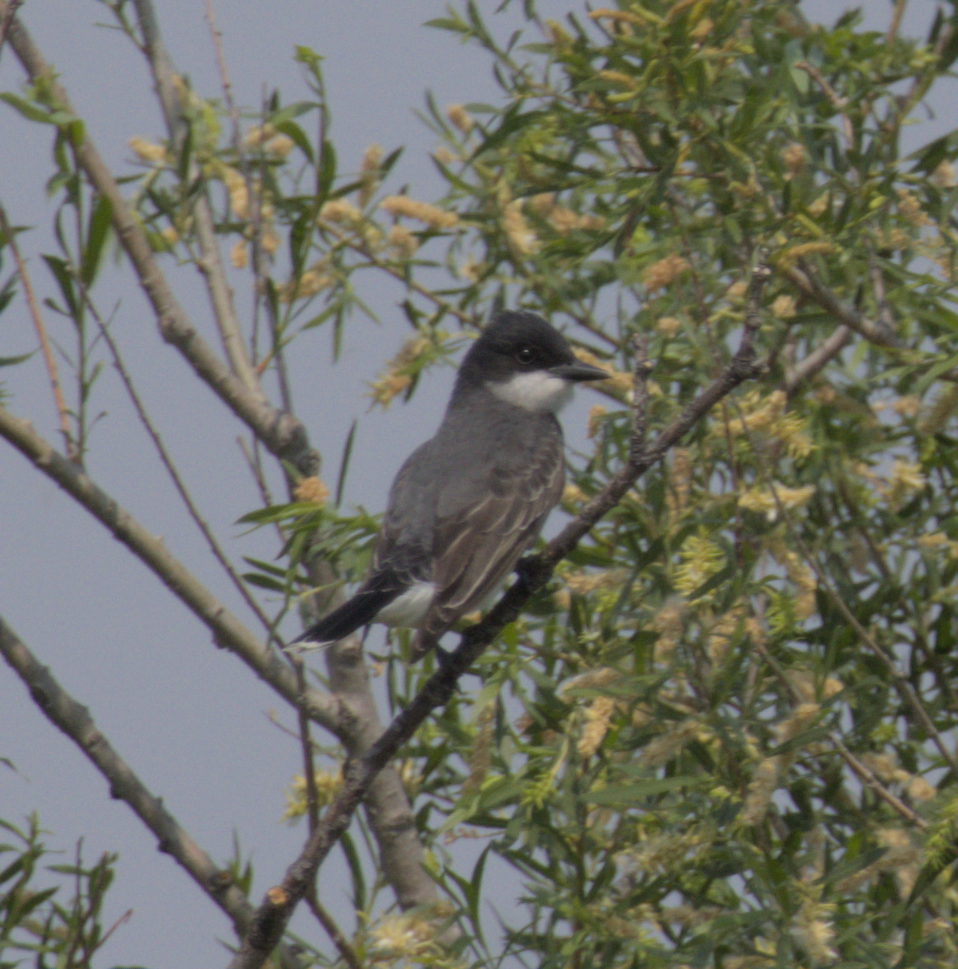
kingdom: Animalia
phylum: Chordata
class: Aves
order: Passeriformes
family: Tyrannidae
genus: Tyrannus
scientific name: Tyrannus tyrannus
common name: Eastern kingbird
